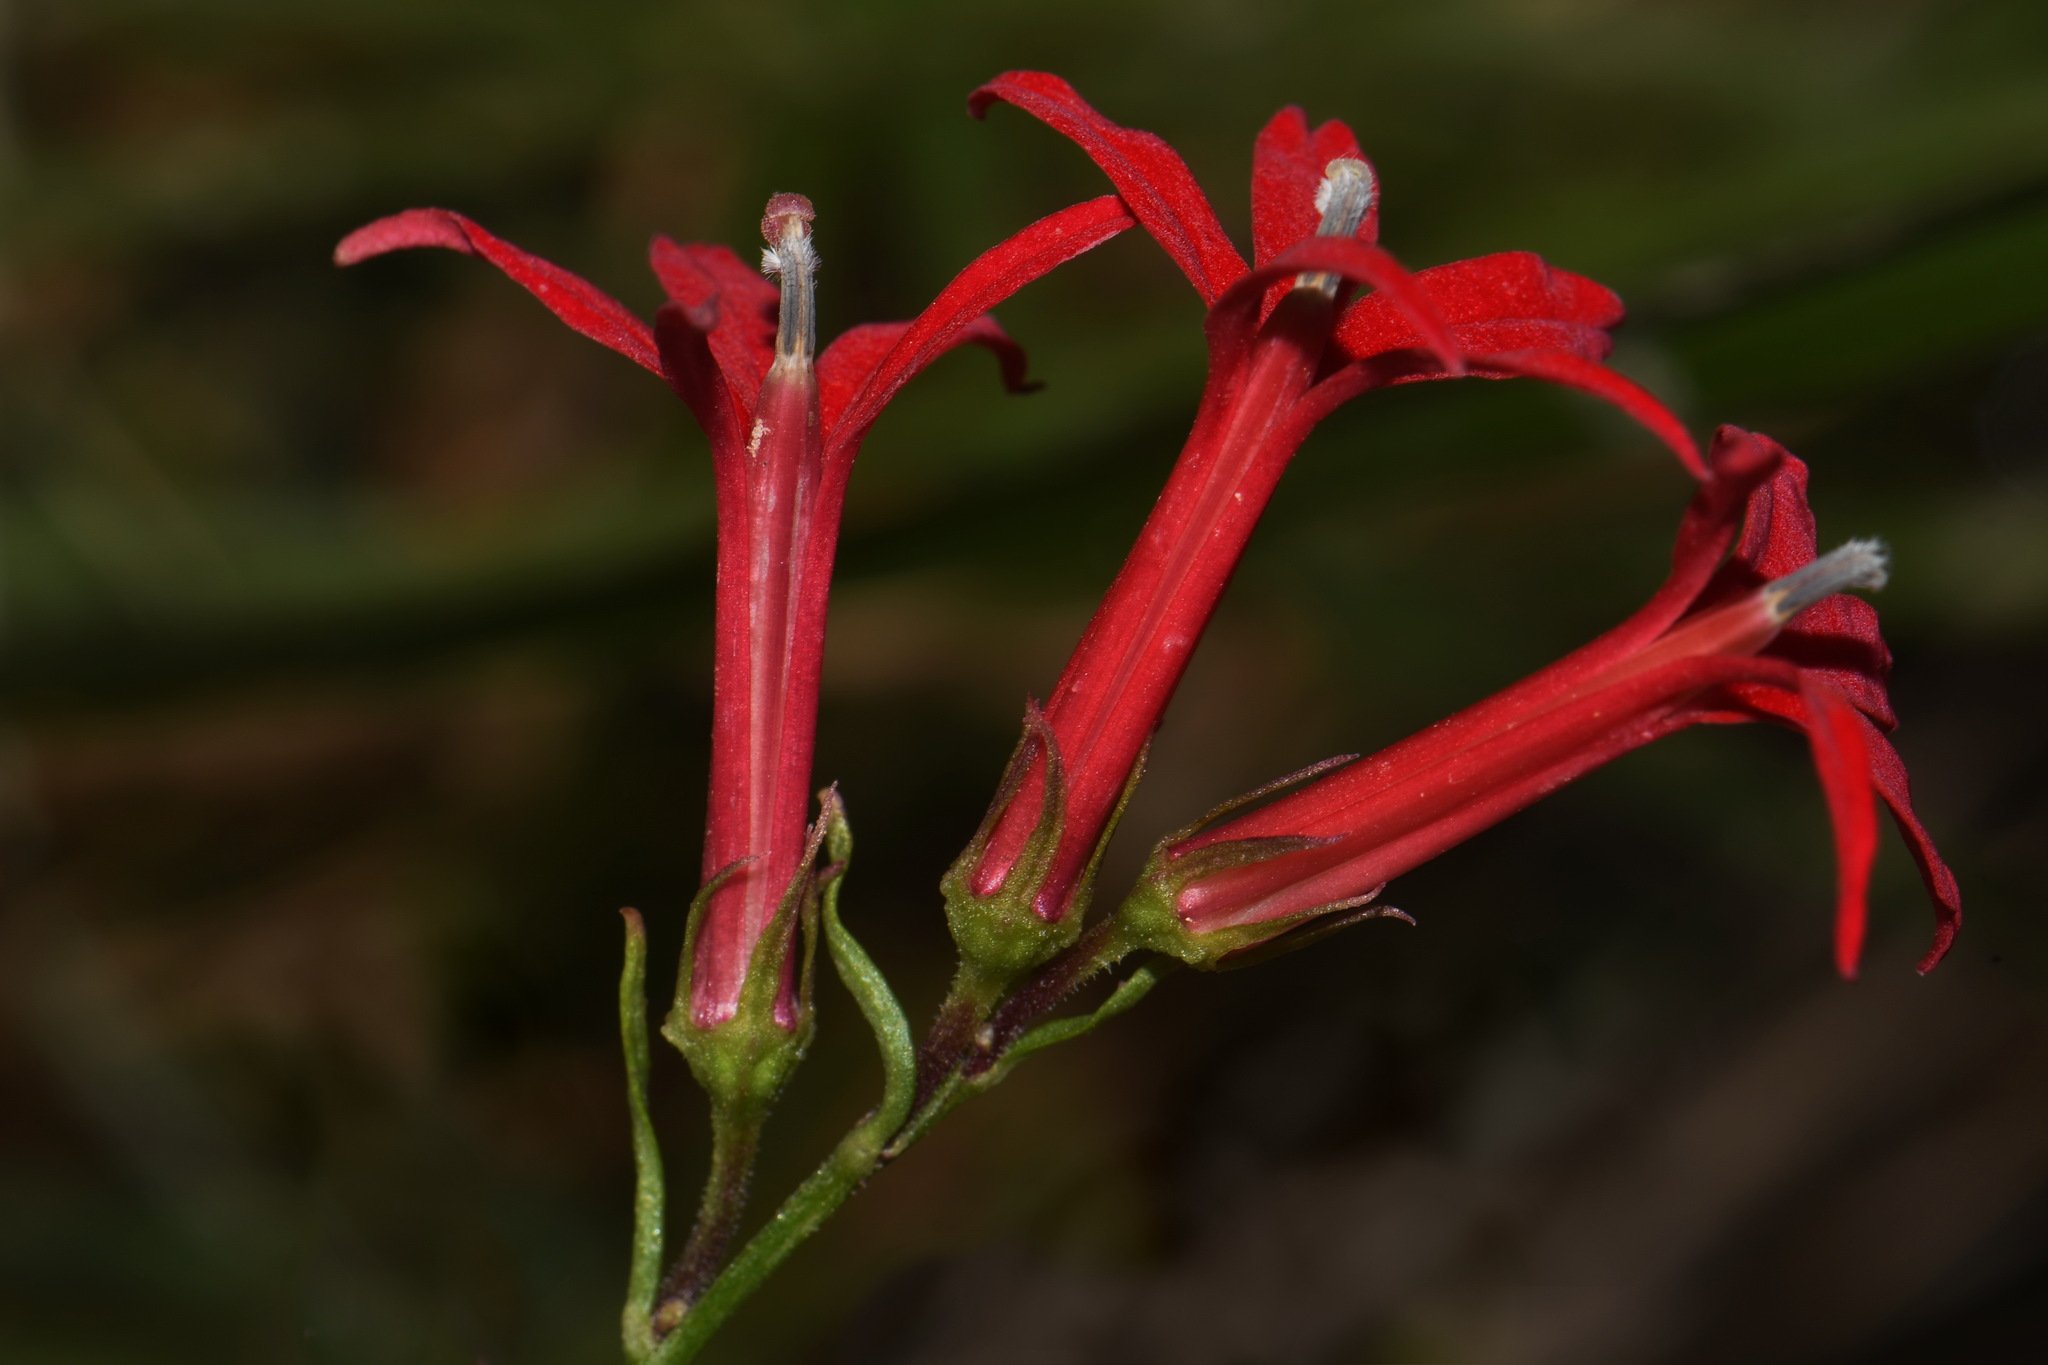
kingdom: Plantae
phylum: Tracheophyta
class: Magnoliopsida
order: Asterales
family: Campanulaceae
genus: Lobelia
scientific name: Lobelia cardinalis
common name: Cardinal flower
